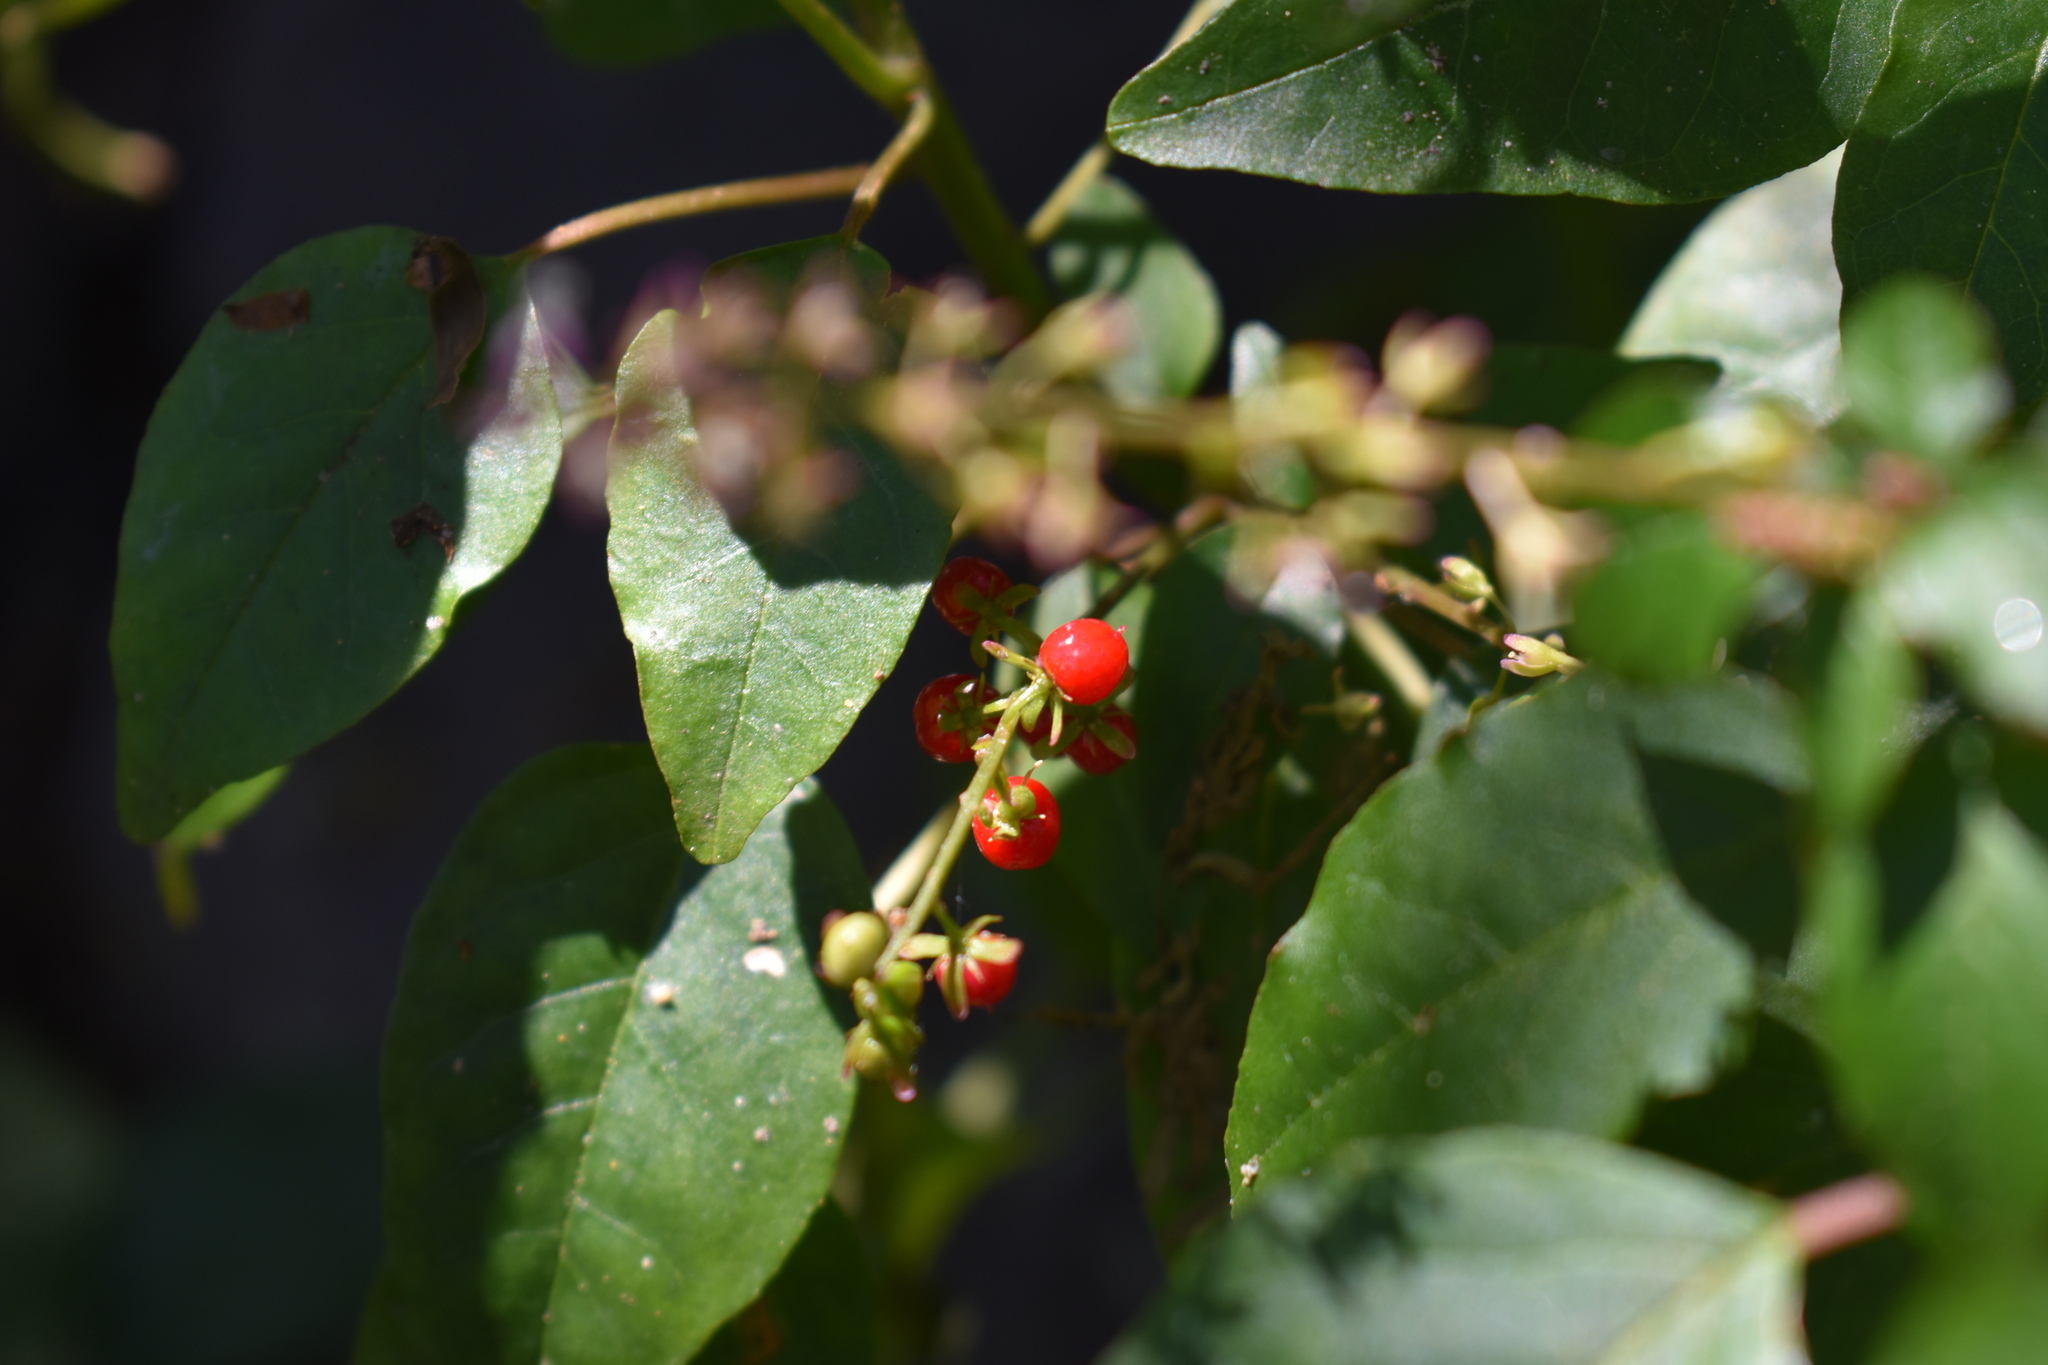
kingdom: Plantae
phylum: Tracheophyta
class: Magnoliopsida
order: Caryophyllales
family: Phytolaccaceae
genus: Rivina
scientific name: Rivina humilis
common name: Rougeplant
